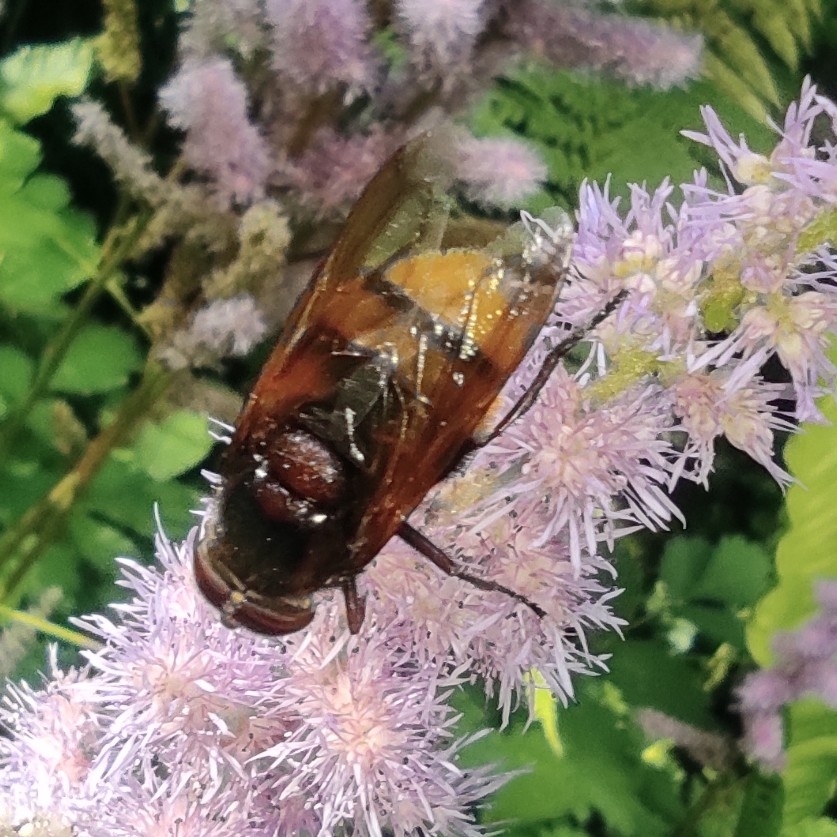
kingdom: Animalia
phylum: Arthropoda
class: Insecta
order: Diptera
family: Syrphidae
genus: Volucella
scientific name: Volucella zonaria
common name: Hornet hoverfly
